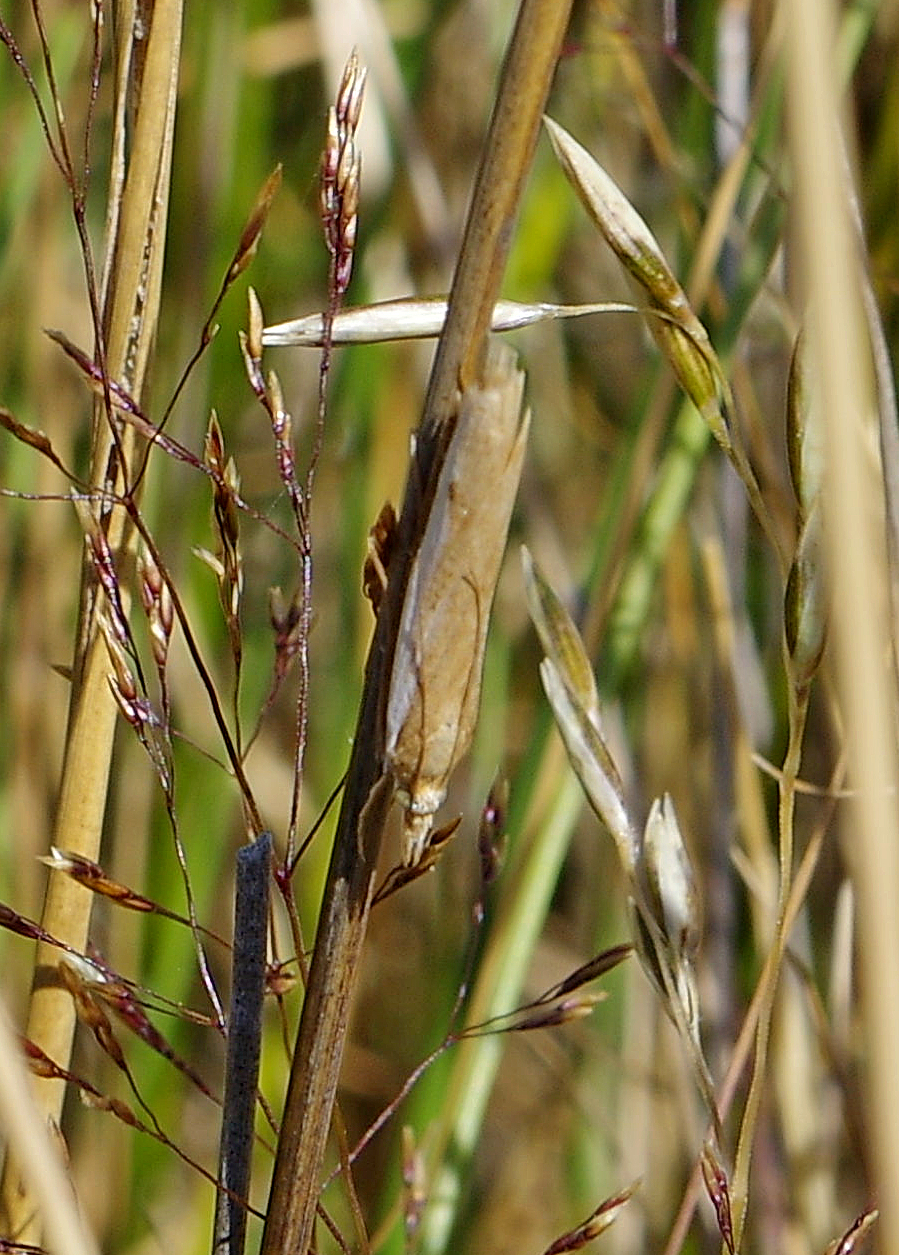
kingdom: Animalia
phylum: Arthropoda
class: Insecta
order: Lepidoptera
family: Crambidae
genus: Orocrambus
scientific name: Orocrambus flexuosellus
